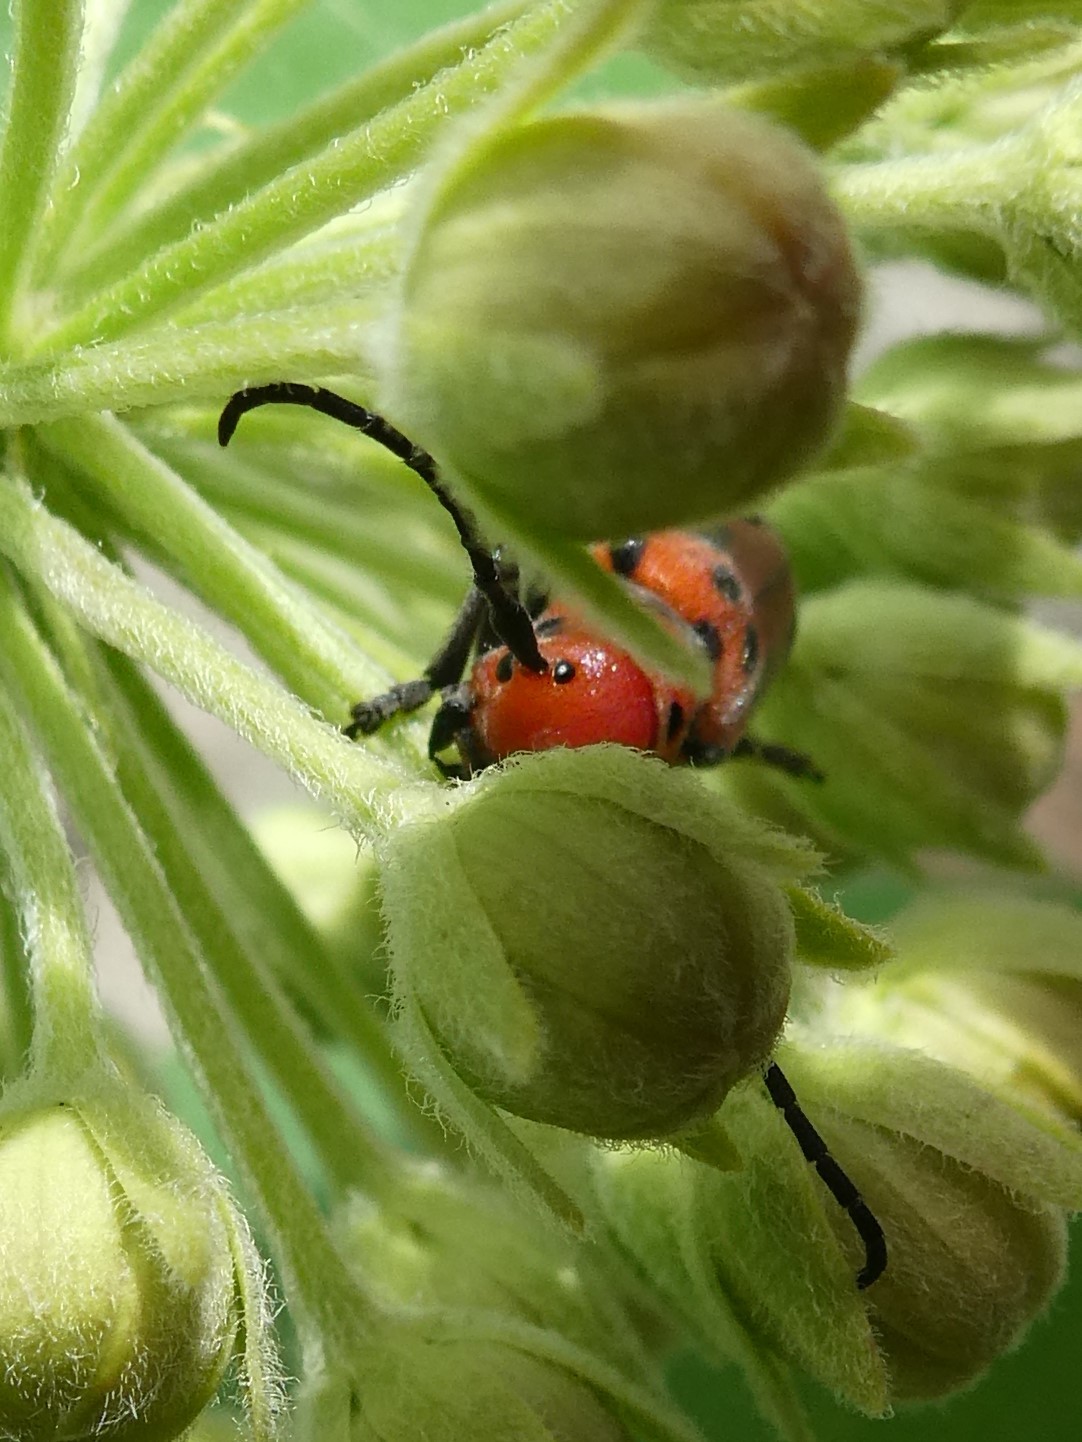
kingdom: Animalia
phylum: Arthropoda
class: Insecta
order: Coleoptera
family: Cerambycidae
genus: Tetraopes
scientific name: Tetraopes tetrophthalmus
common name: Red milkweed beetle
